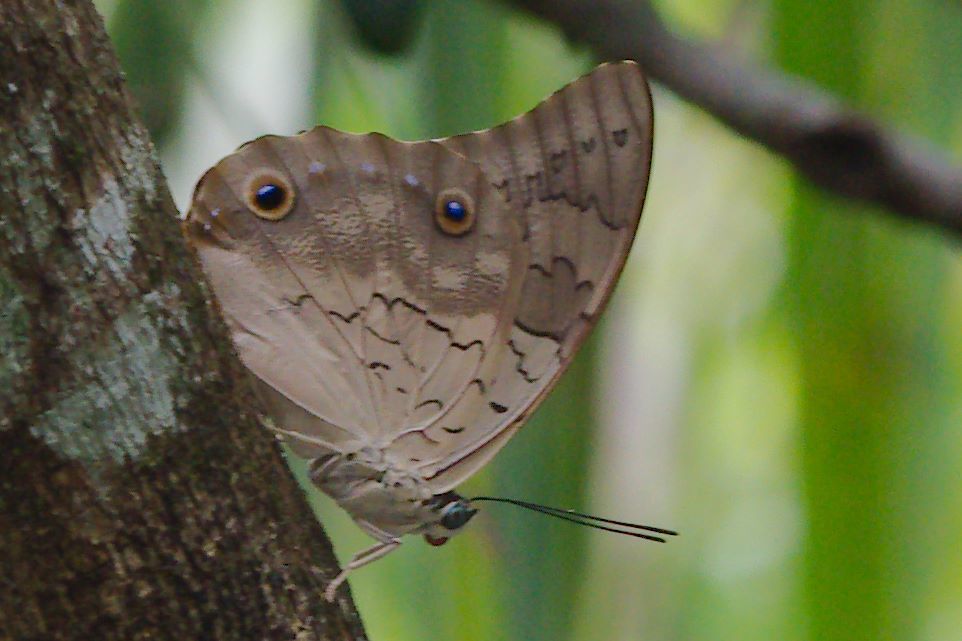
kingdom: Animalia
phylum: Arthropoda
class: Insecta
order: Lepidoptera
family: Nymphalidae
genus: Prepona
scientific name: Prepona laertes
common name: Butterfly
